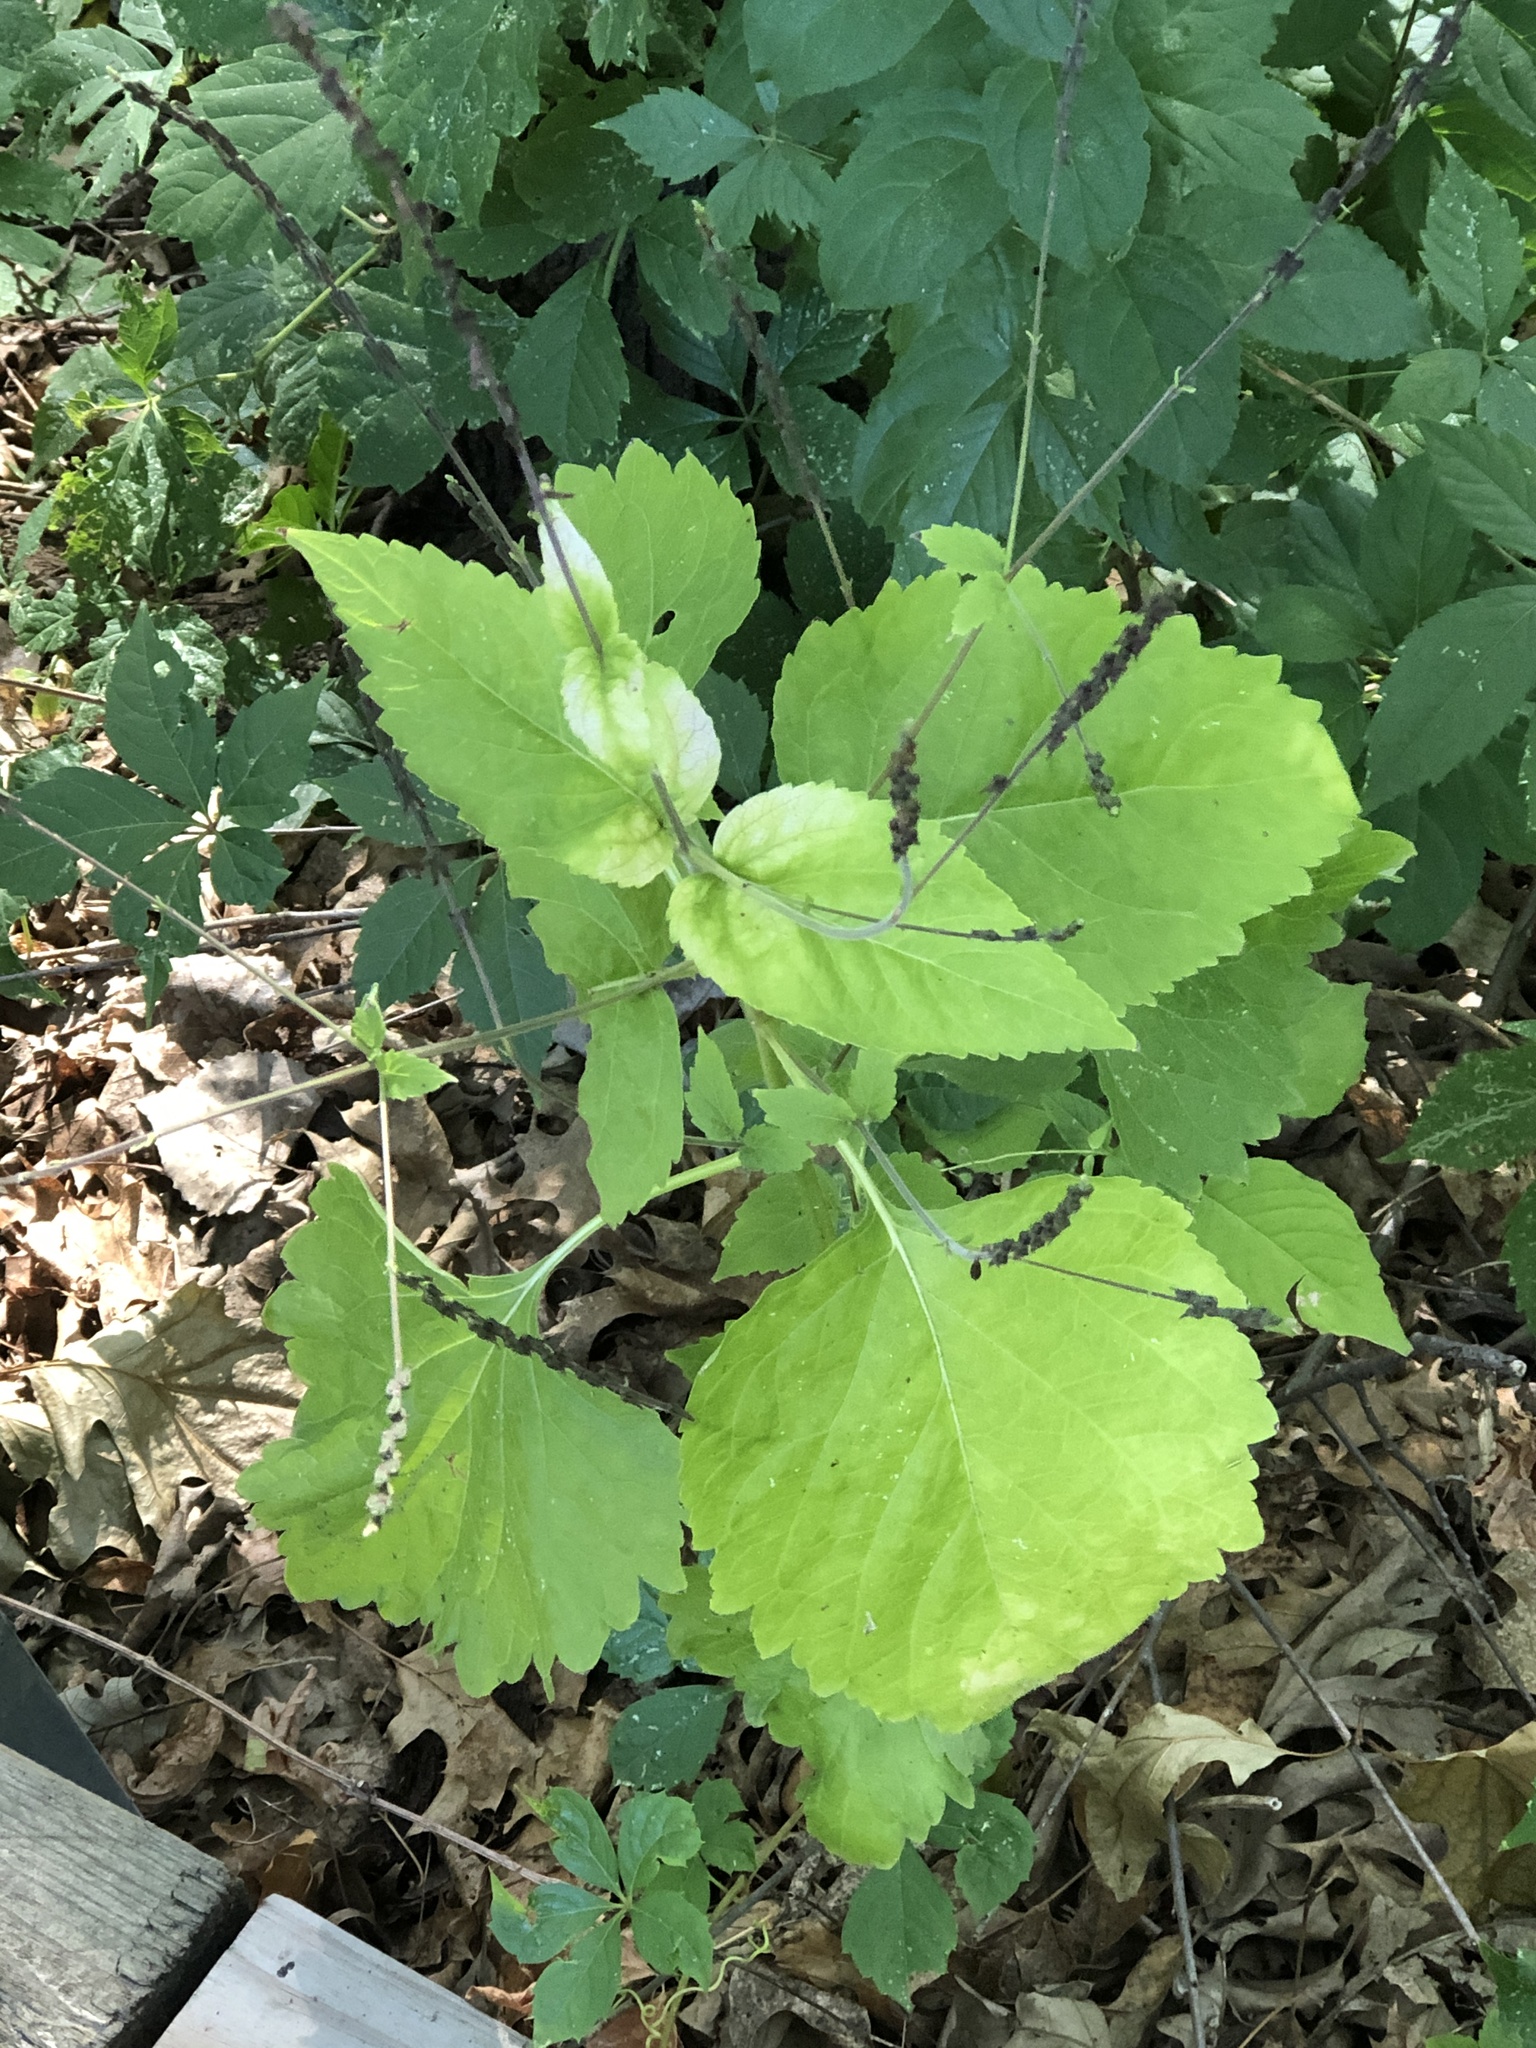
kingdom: Plantae
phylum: Tracheophyta
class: Magnoliopsida
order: Lamiales
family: Phrymaceae
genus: Phryma
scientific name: Phryma leptostachya
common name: American lopseed
